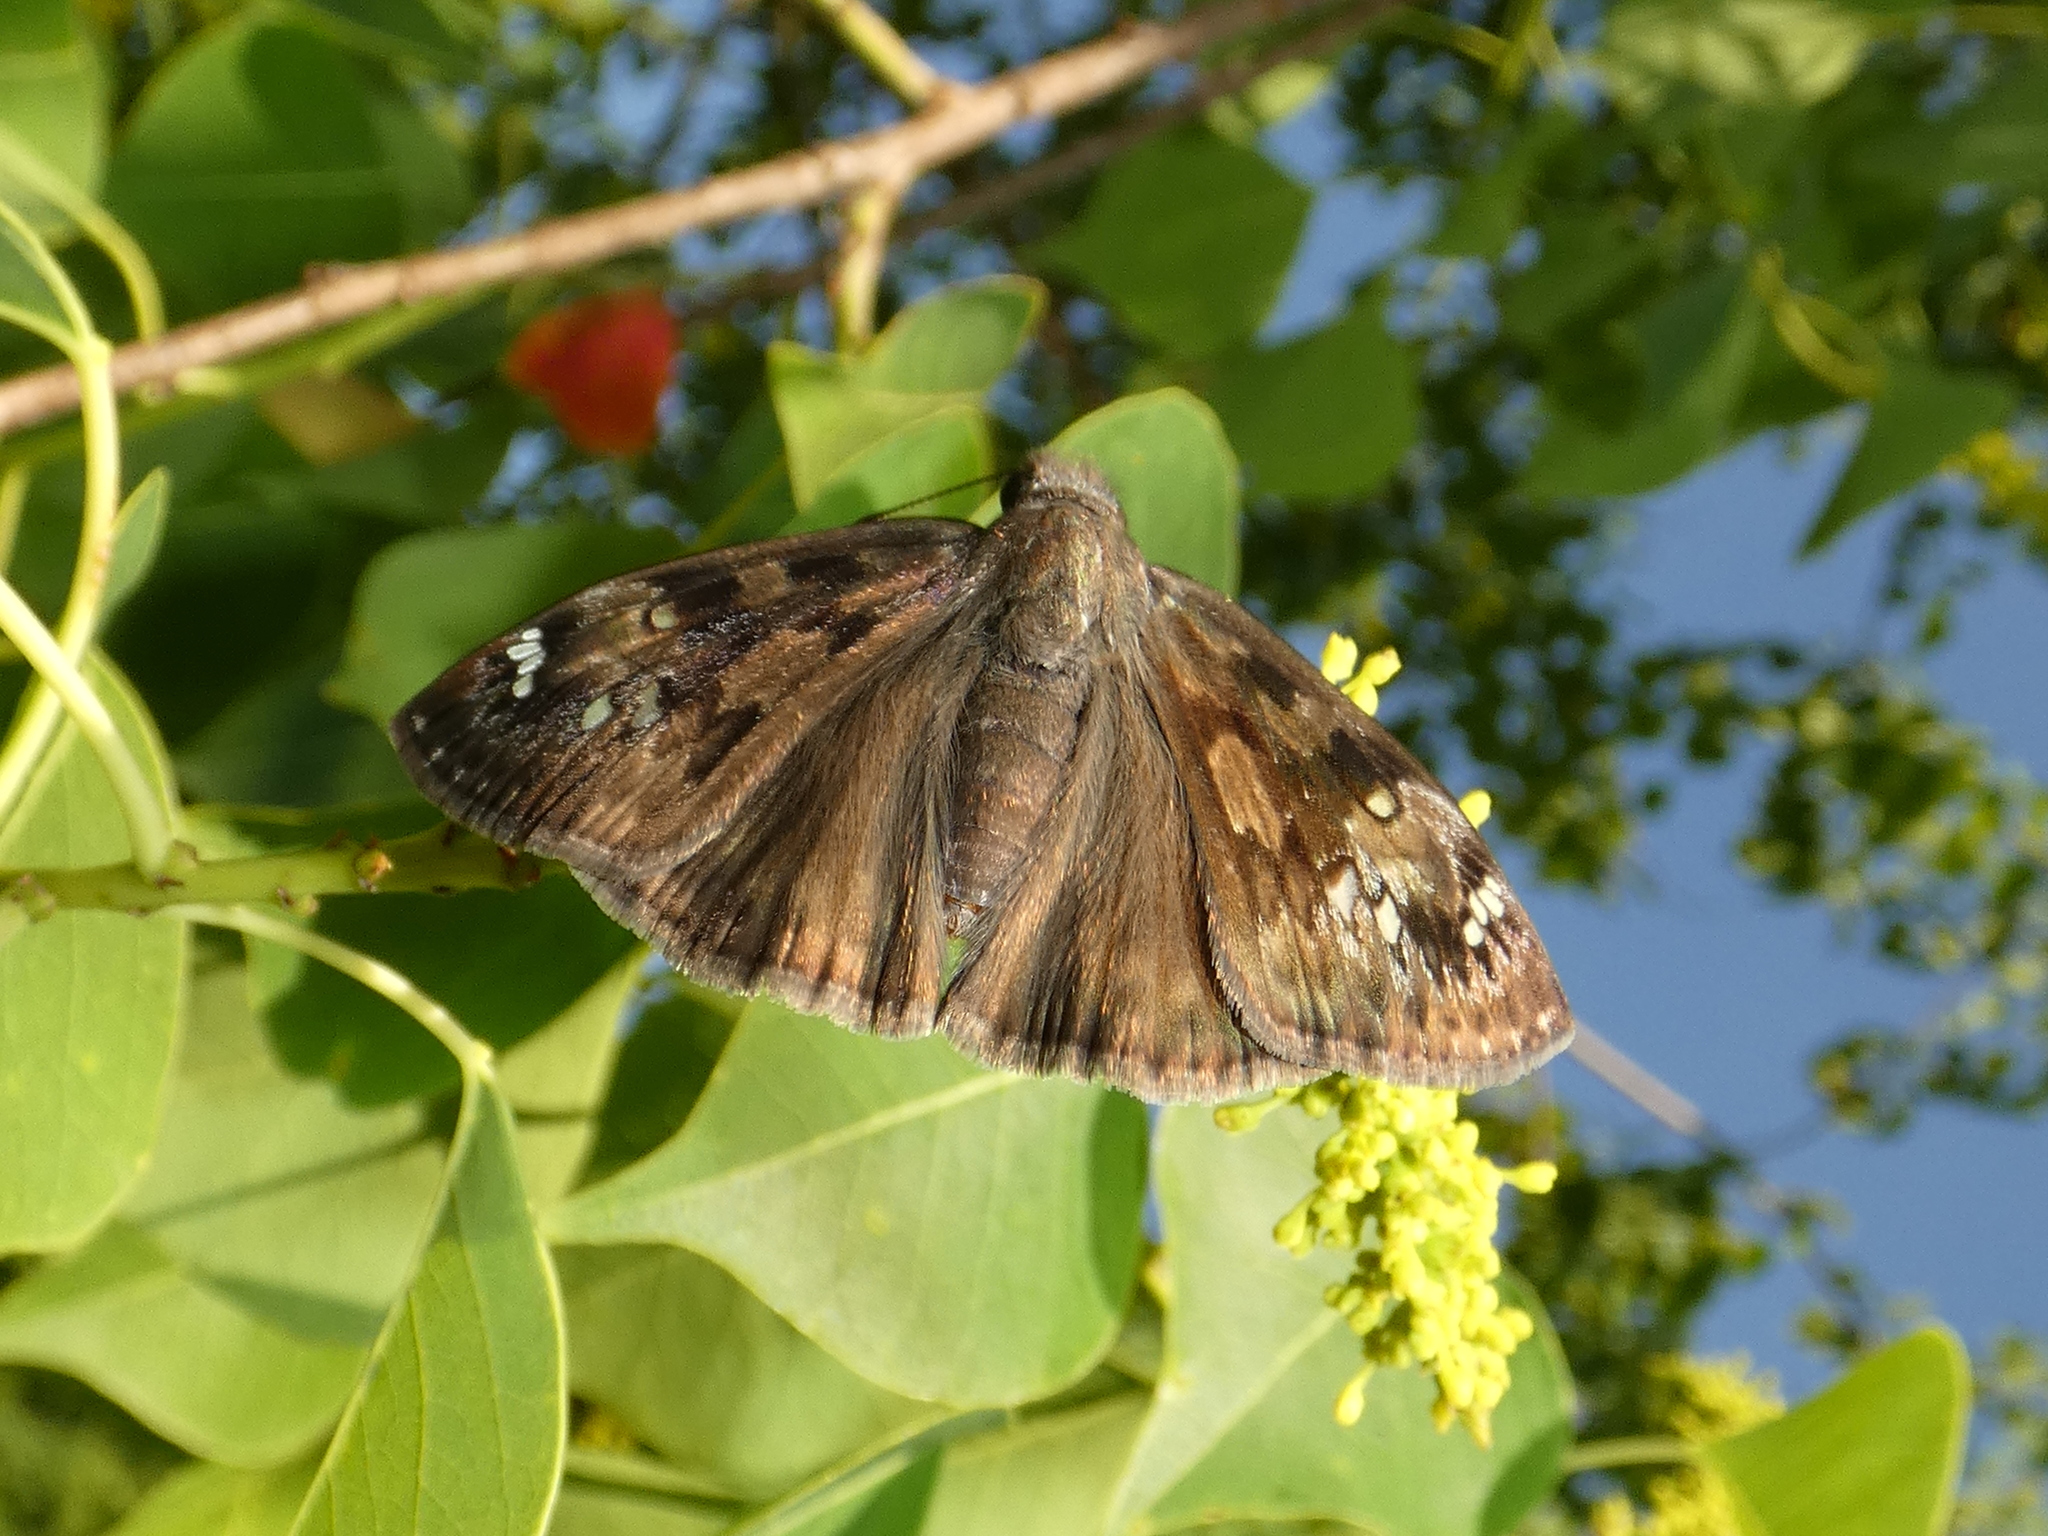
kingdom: Animalia
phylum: Arthropoda
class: Insecta
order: Lepidoptera
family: Hesperiidae
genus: Erynnis
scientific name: Erynnis horatius
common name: Horace's duskywing
